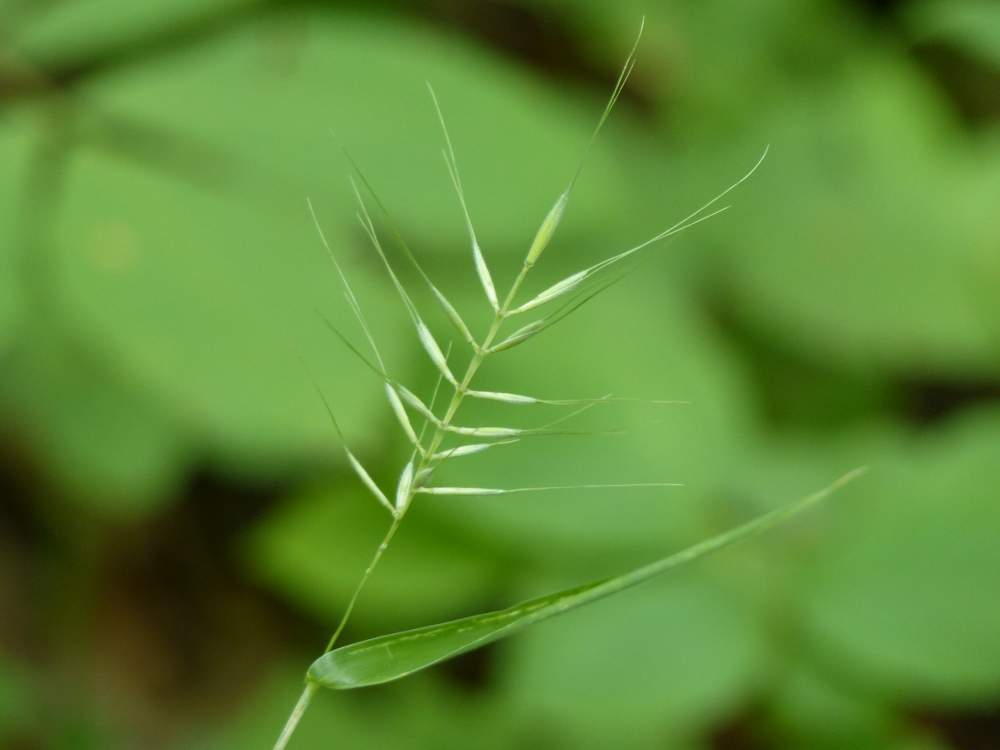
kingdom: Plantae
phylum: Tracheophyta
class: Liliopsida
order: Poales
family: Poaceae
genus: Elymus
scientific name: Elymus hystrix
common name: Bottlebrush grass
